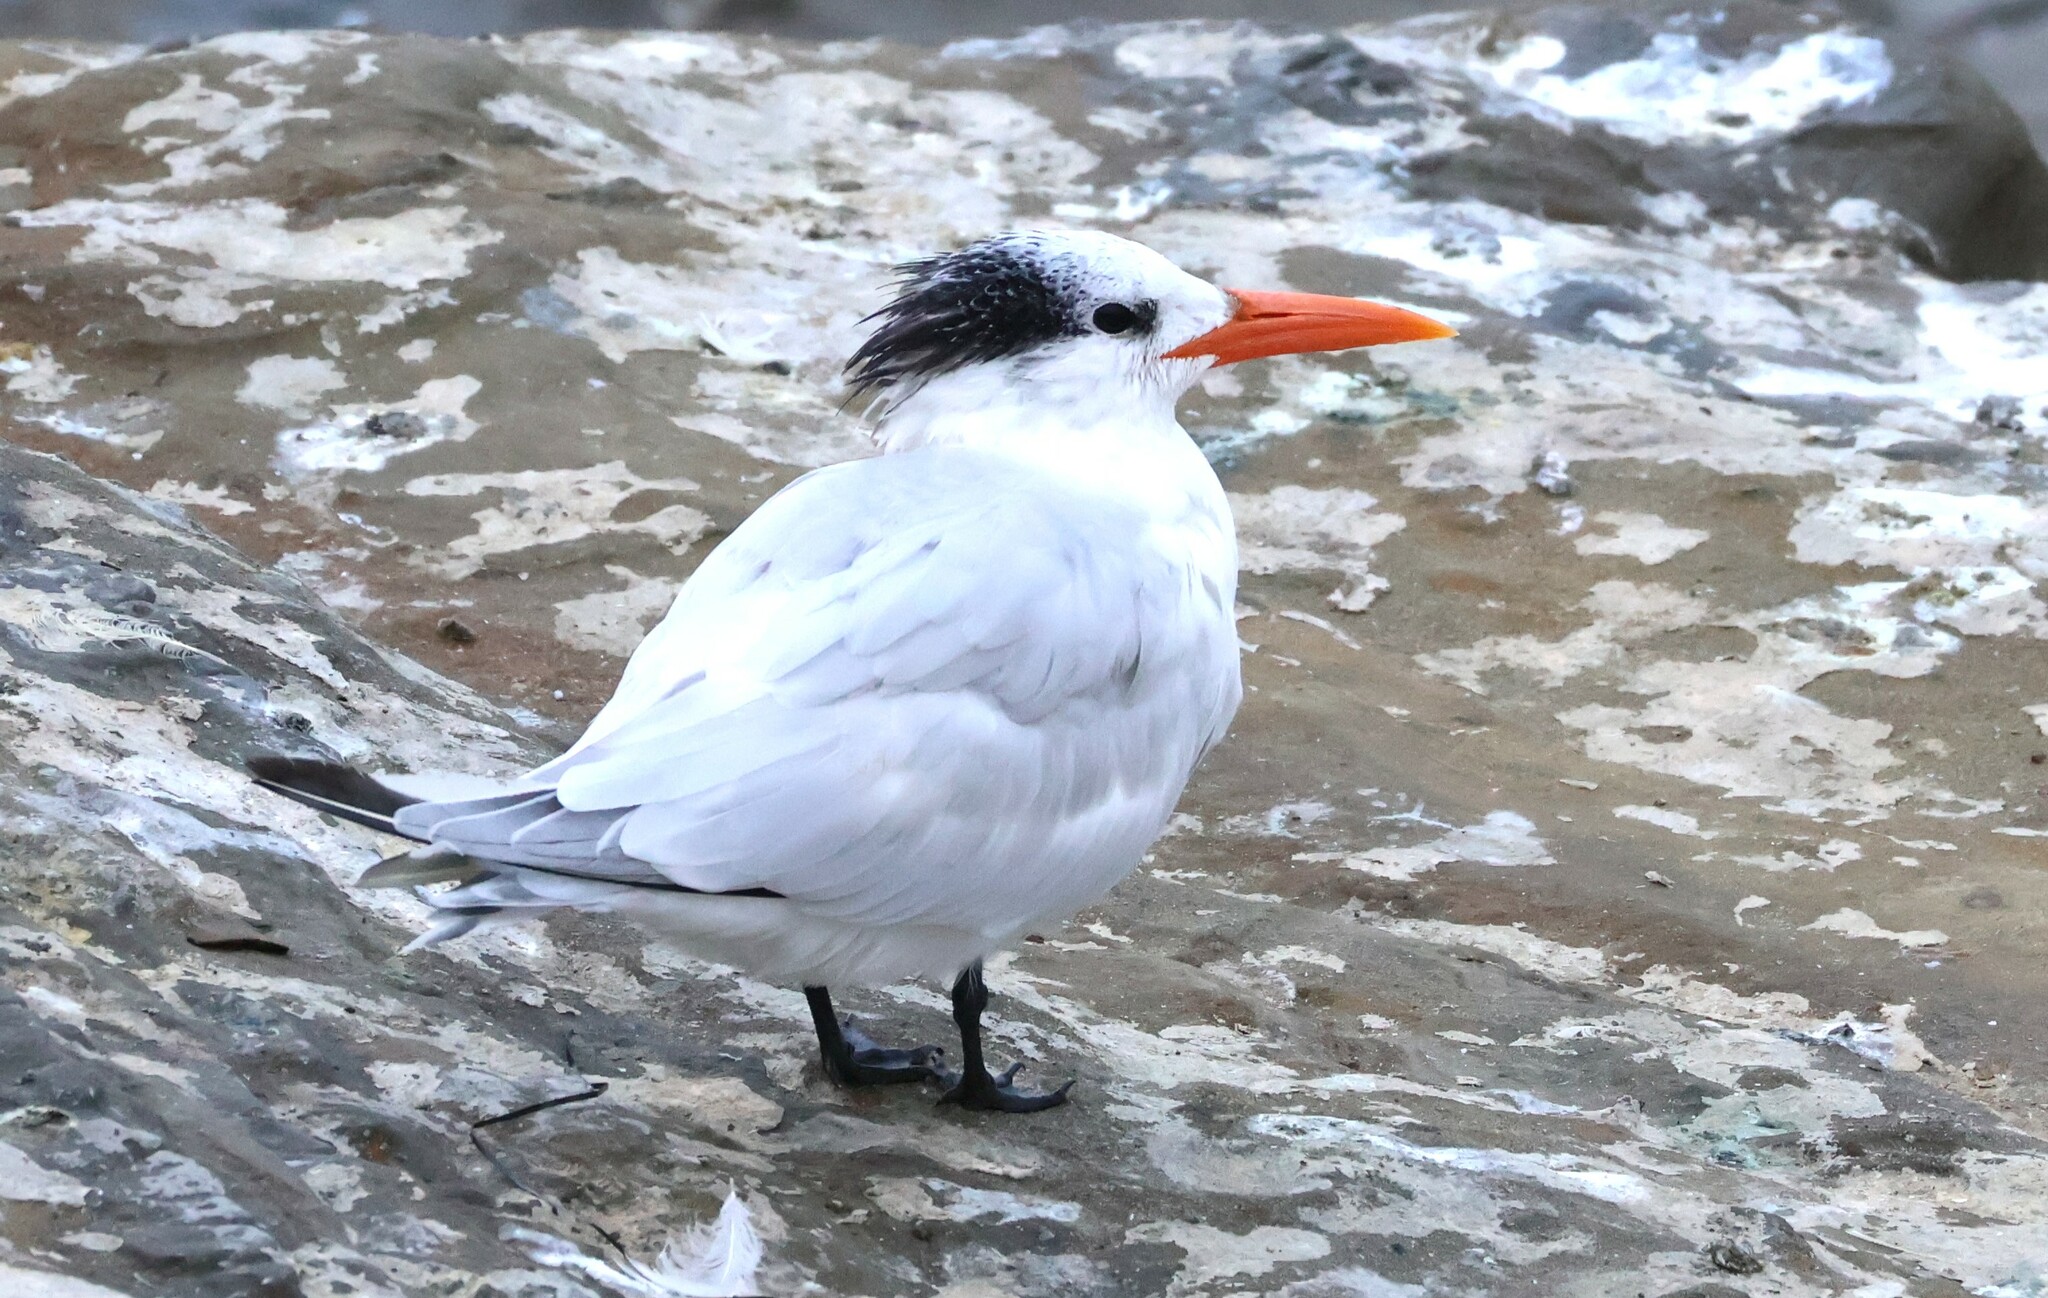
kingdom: Animalia
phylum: Chordata
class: Aves
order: Charadriiformes
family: Laridae
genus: Thalasseus
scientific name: Thalasseus maximus
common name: Royal tern
